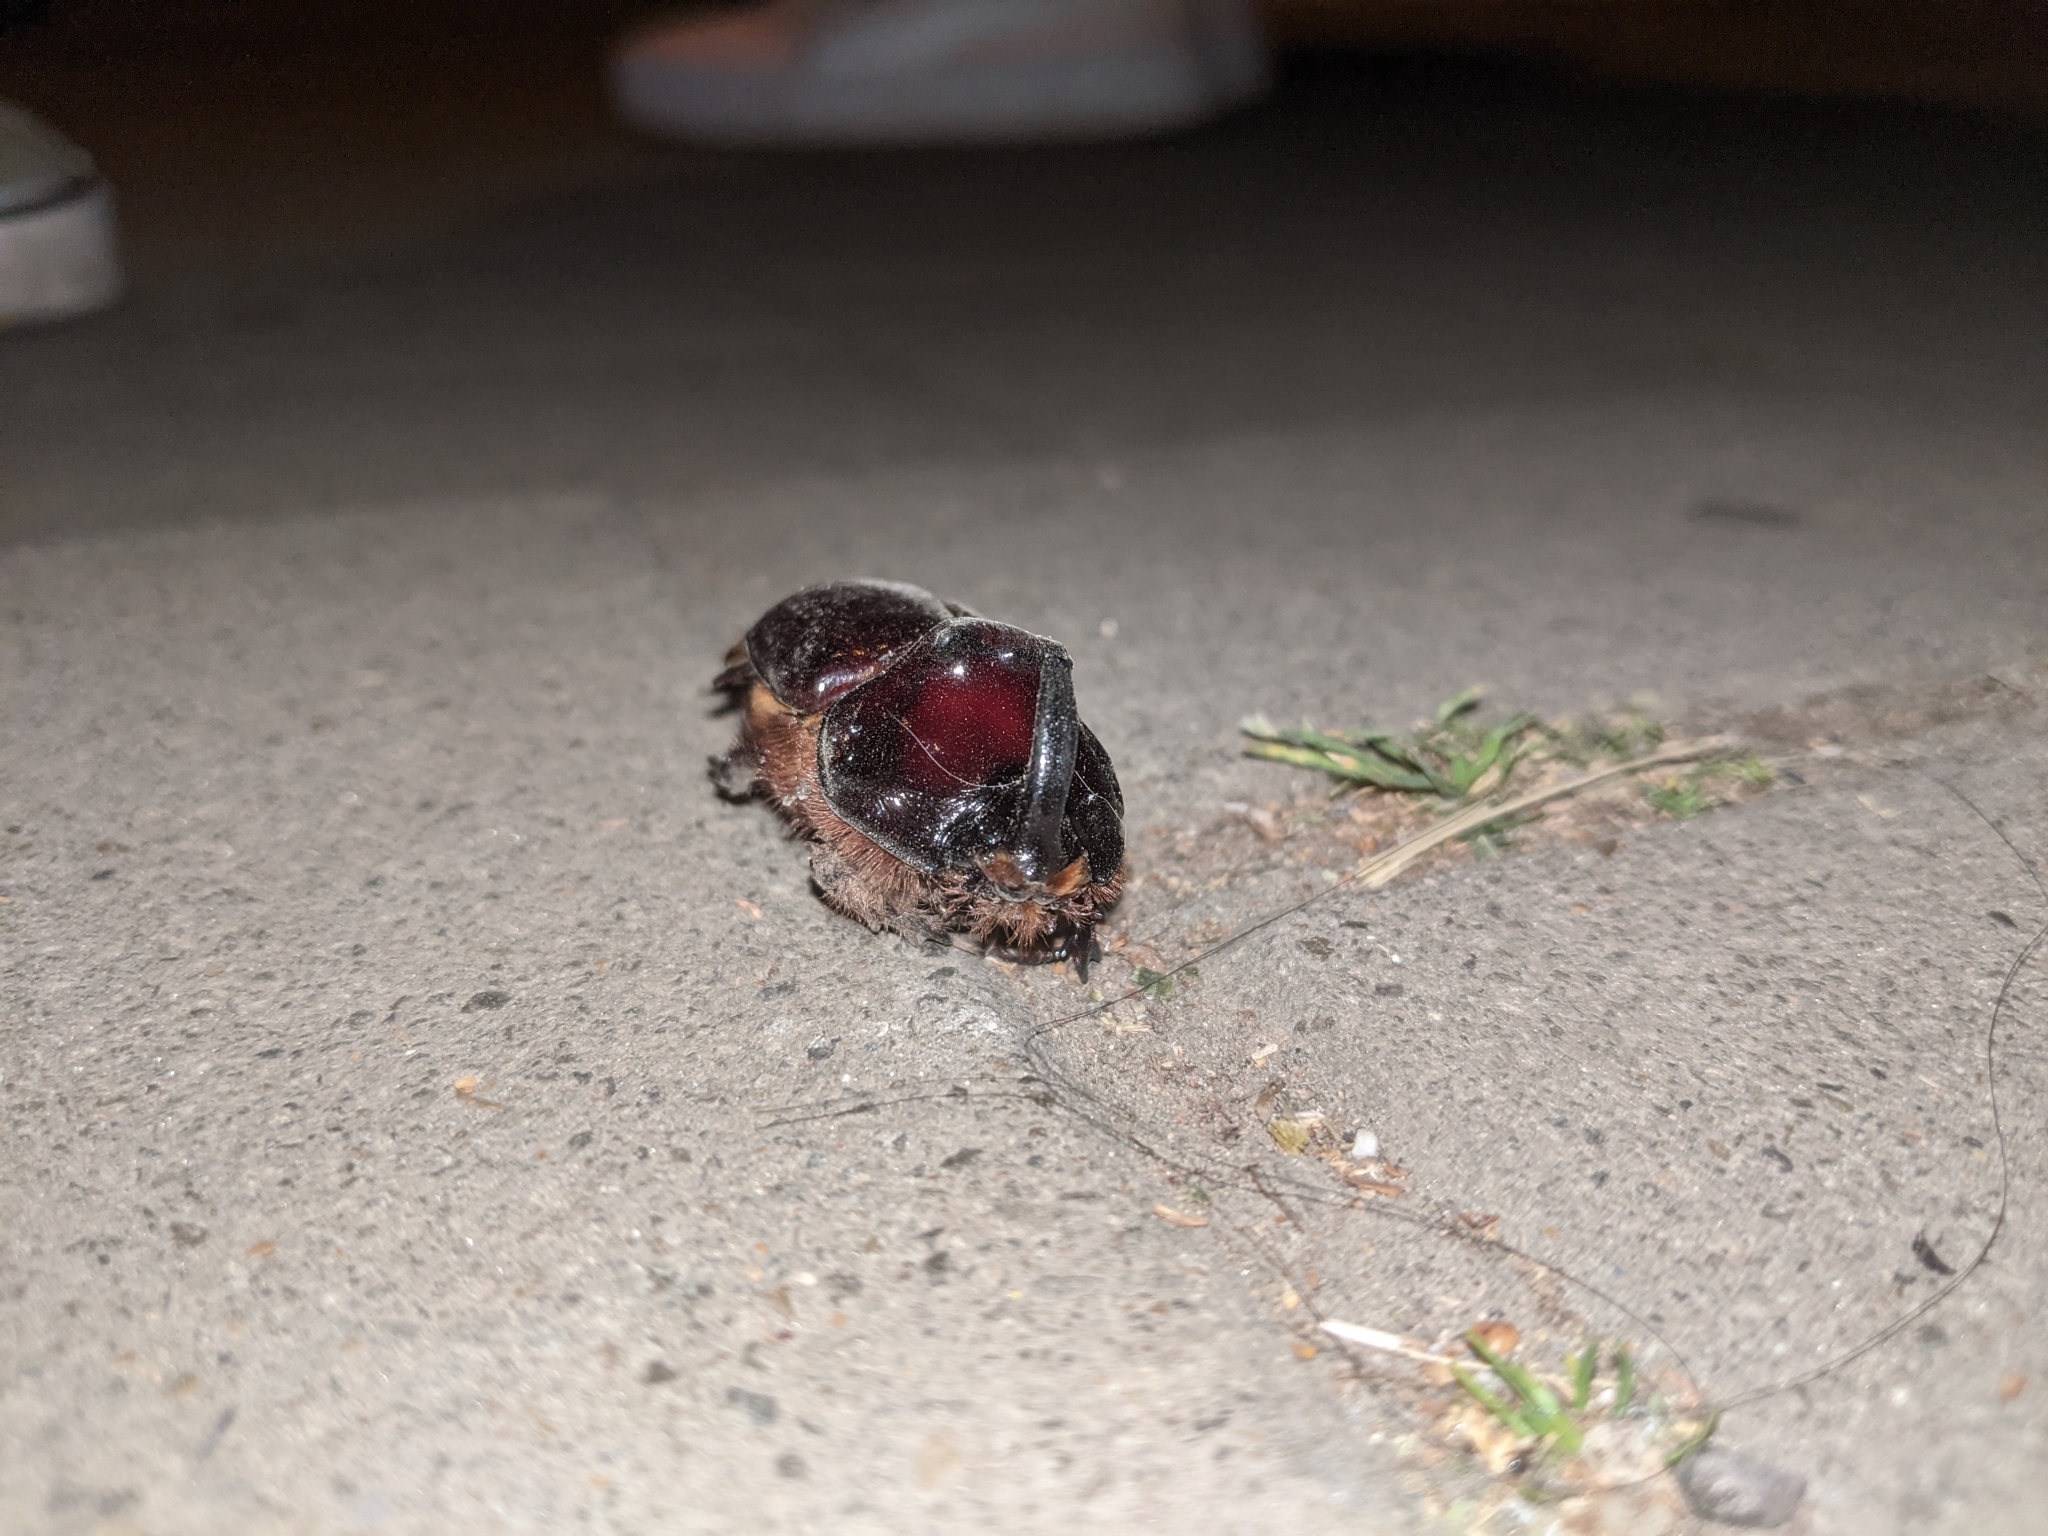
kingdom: Animalia
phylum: Arthropoda
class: Insecta
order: Coleoptera
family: Scarabaeidae
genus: Oryctes
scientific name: Oryctes nasicornis
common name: European rhinoceros beetle
